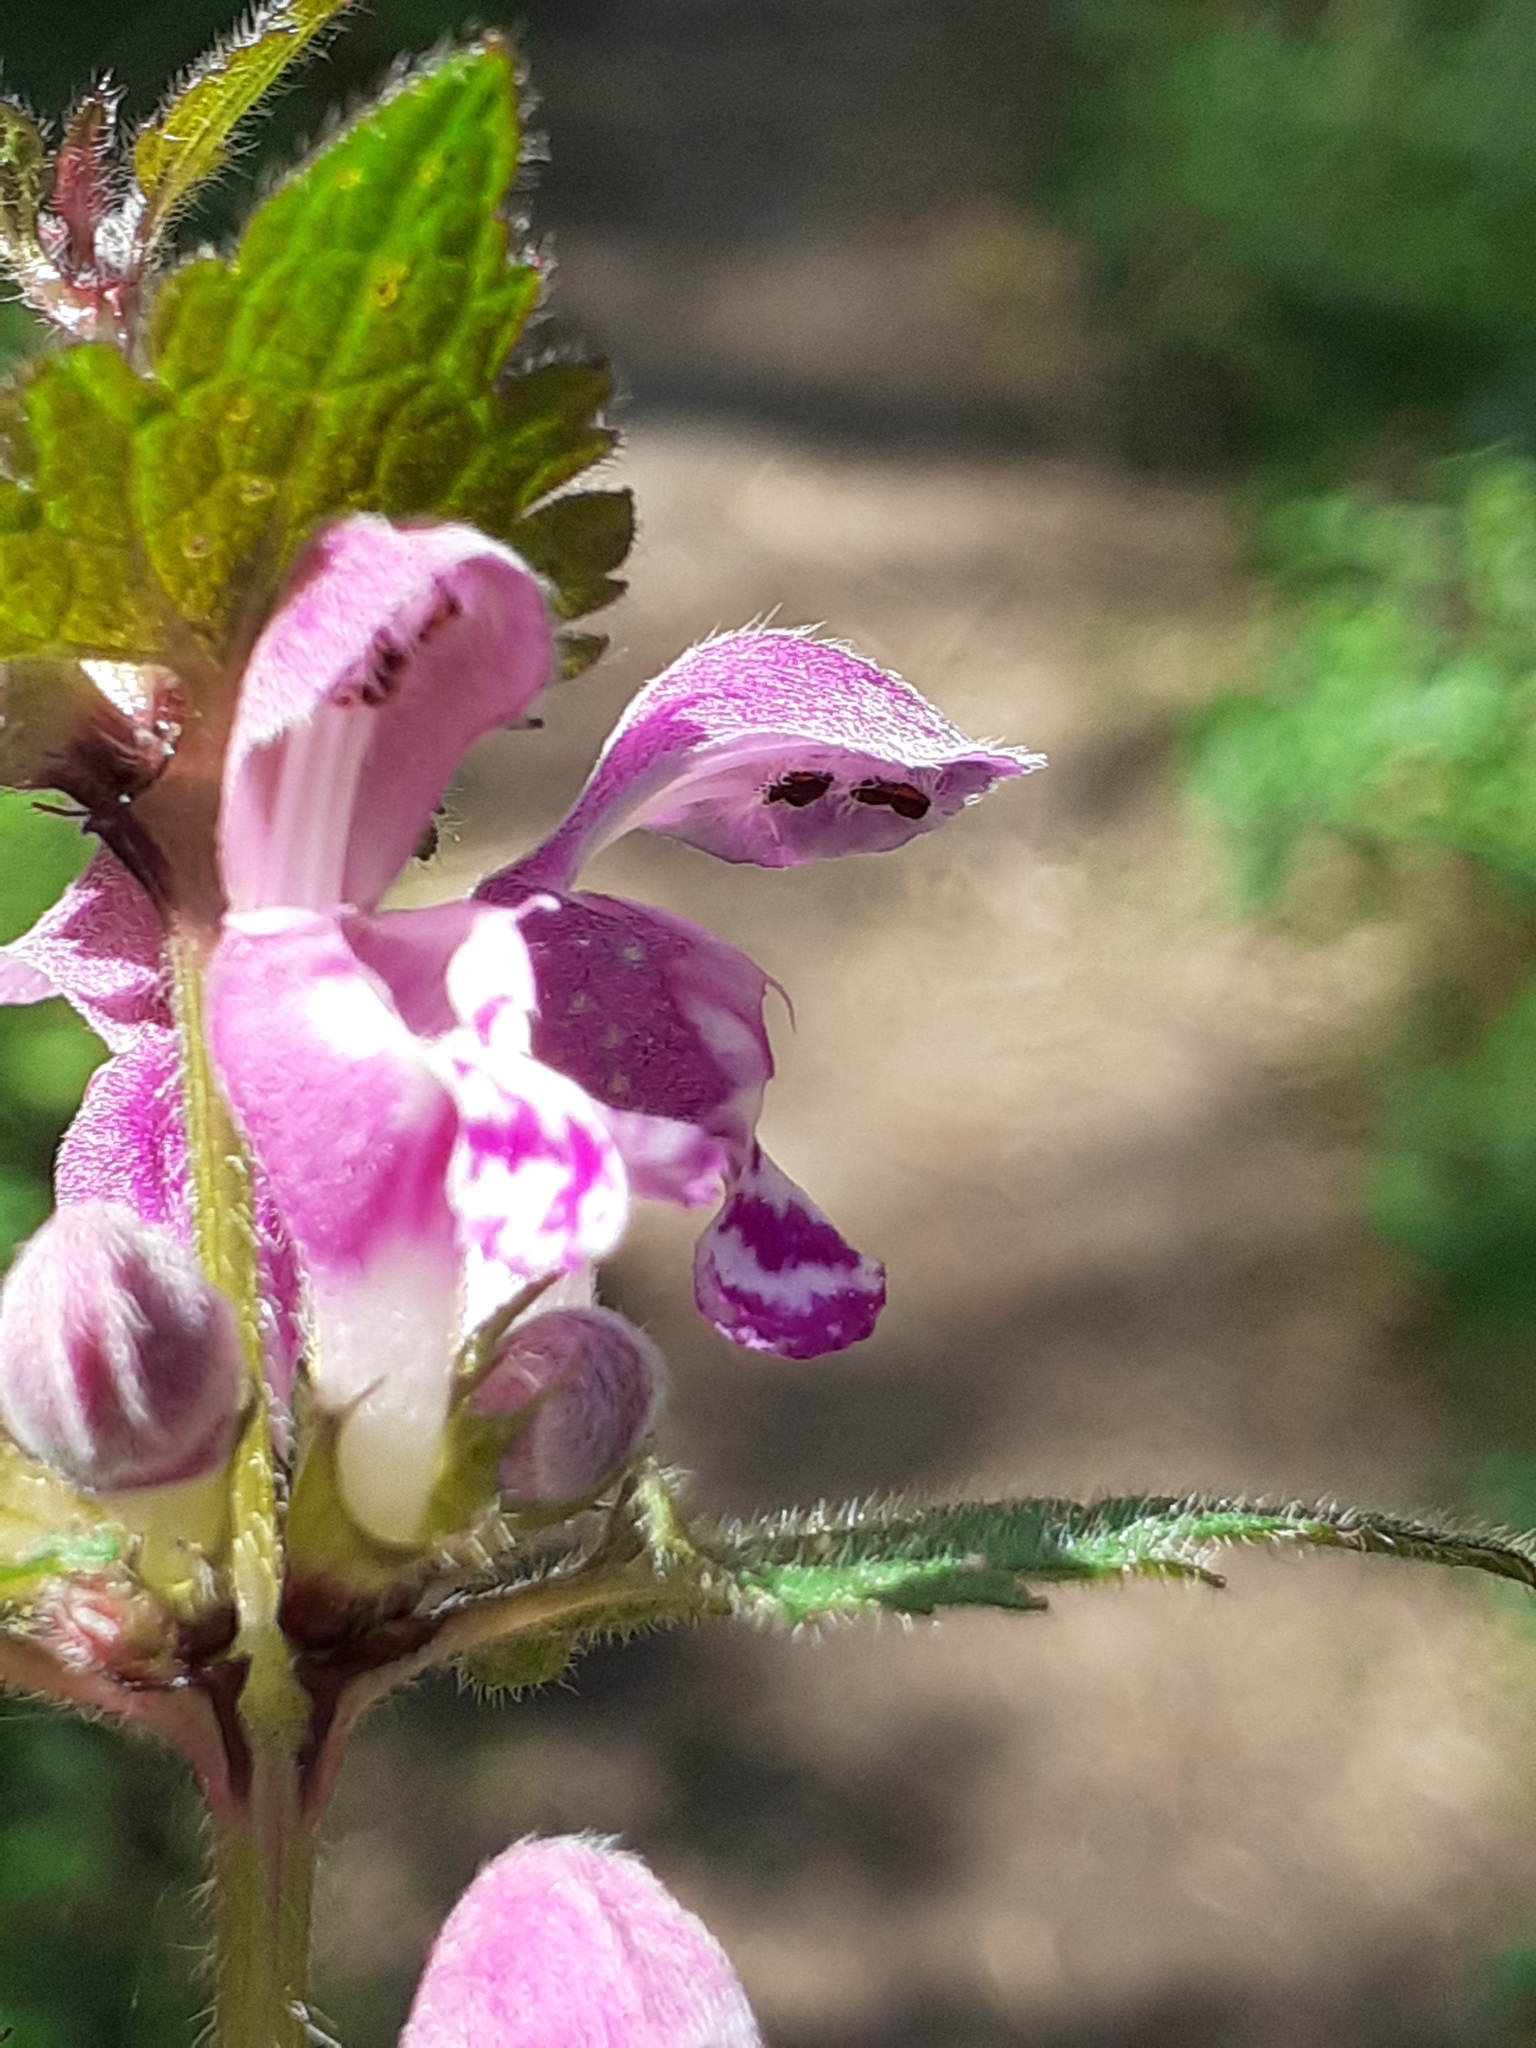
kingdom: Plantae
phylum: Tracheophyta
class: Magnoliopsida
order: Lamiales
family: Lamiaceae
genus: Lamium
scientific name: Lamium maculatum
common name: Spotted dead-nettle
